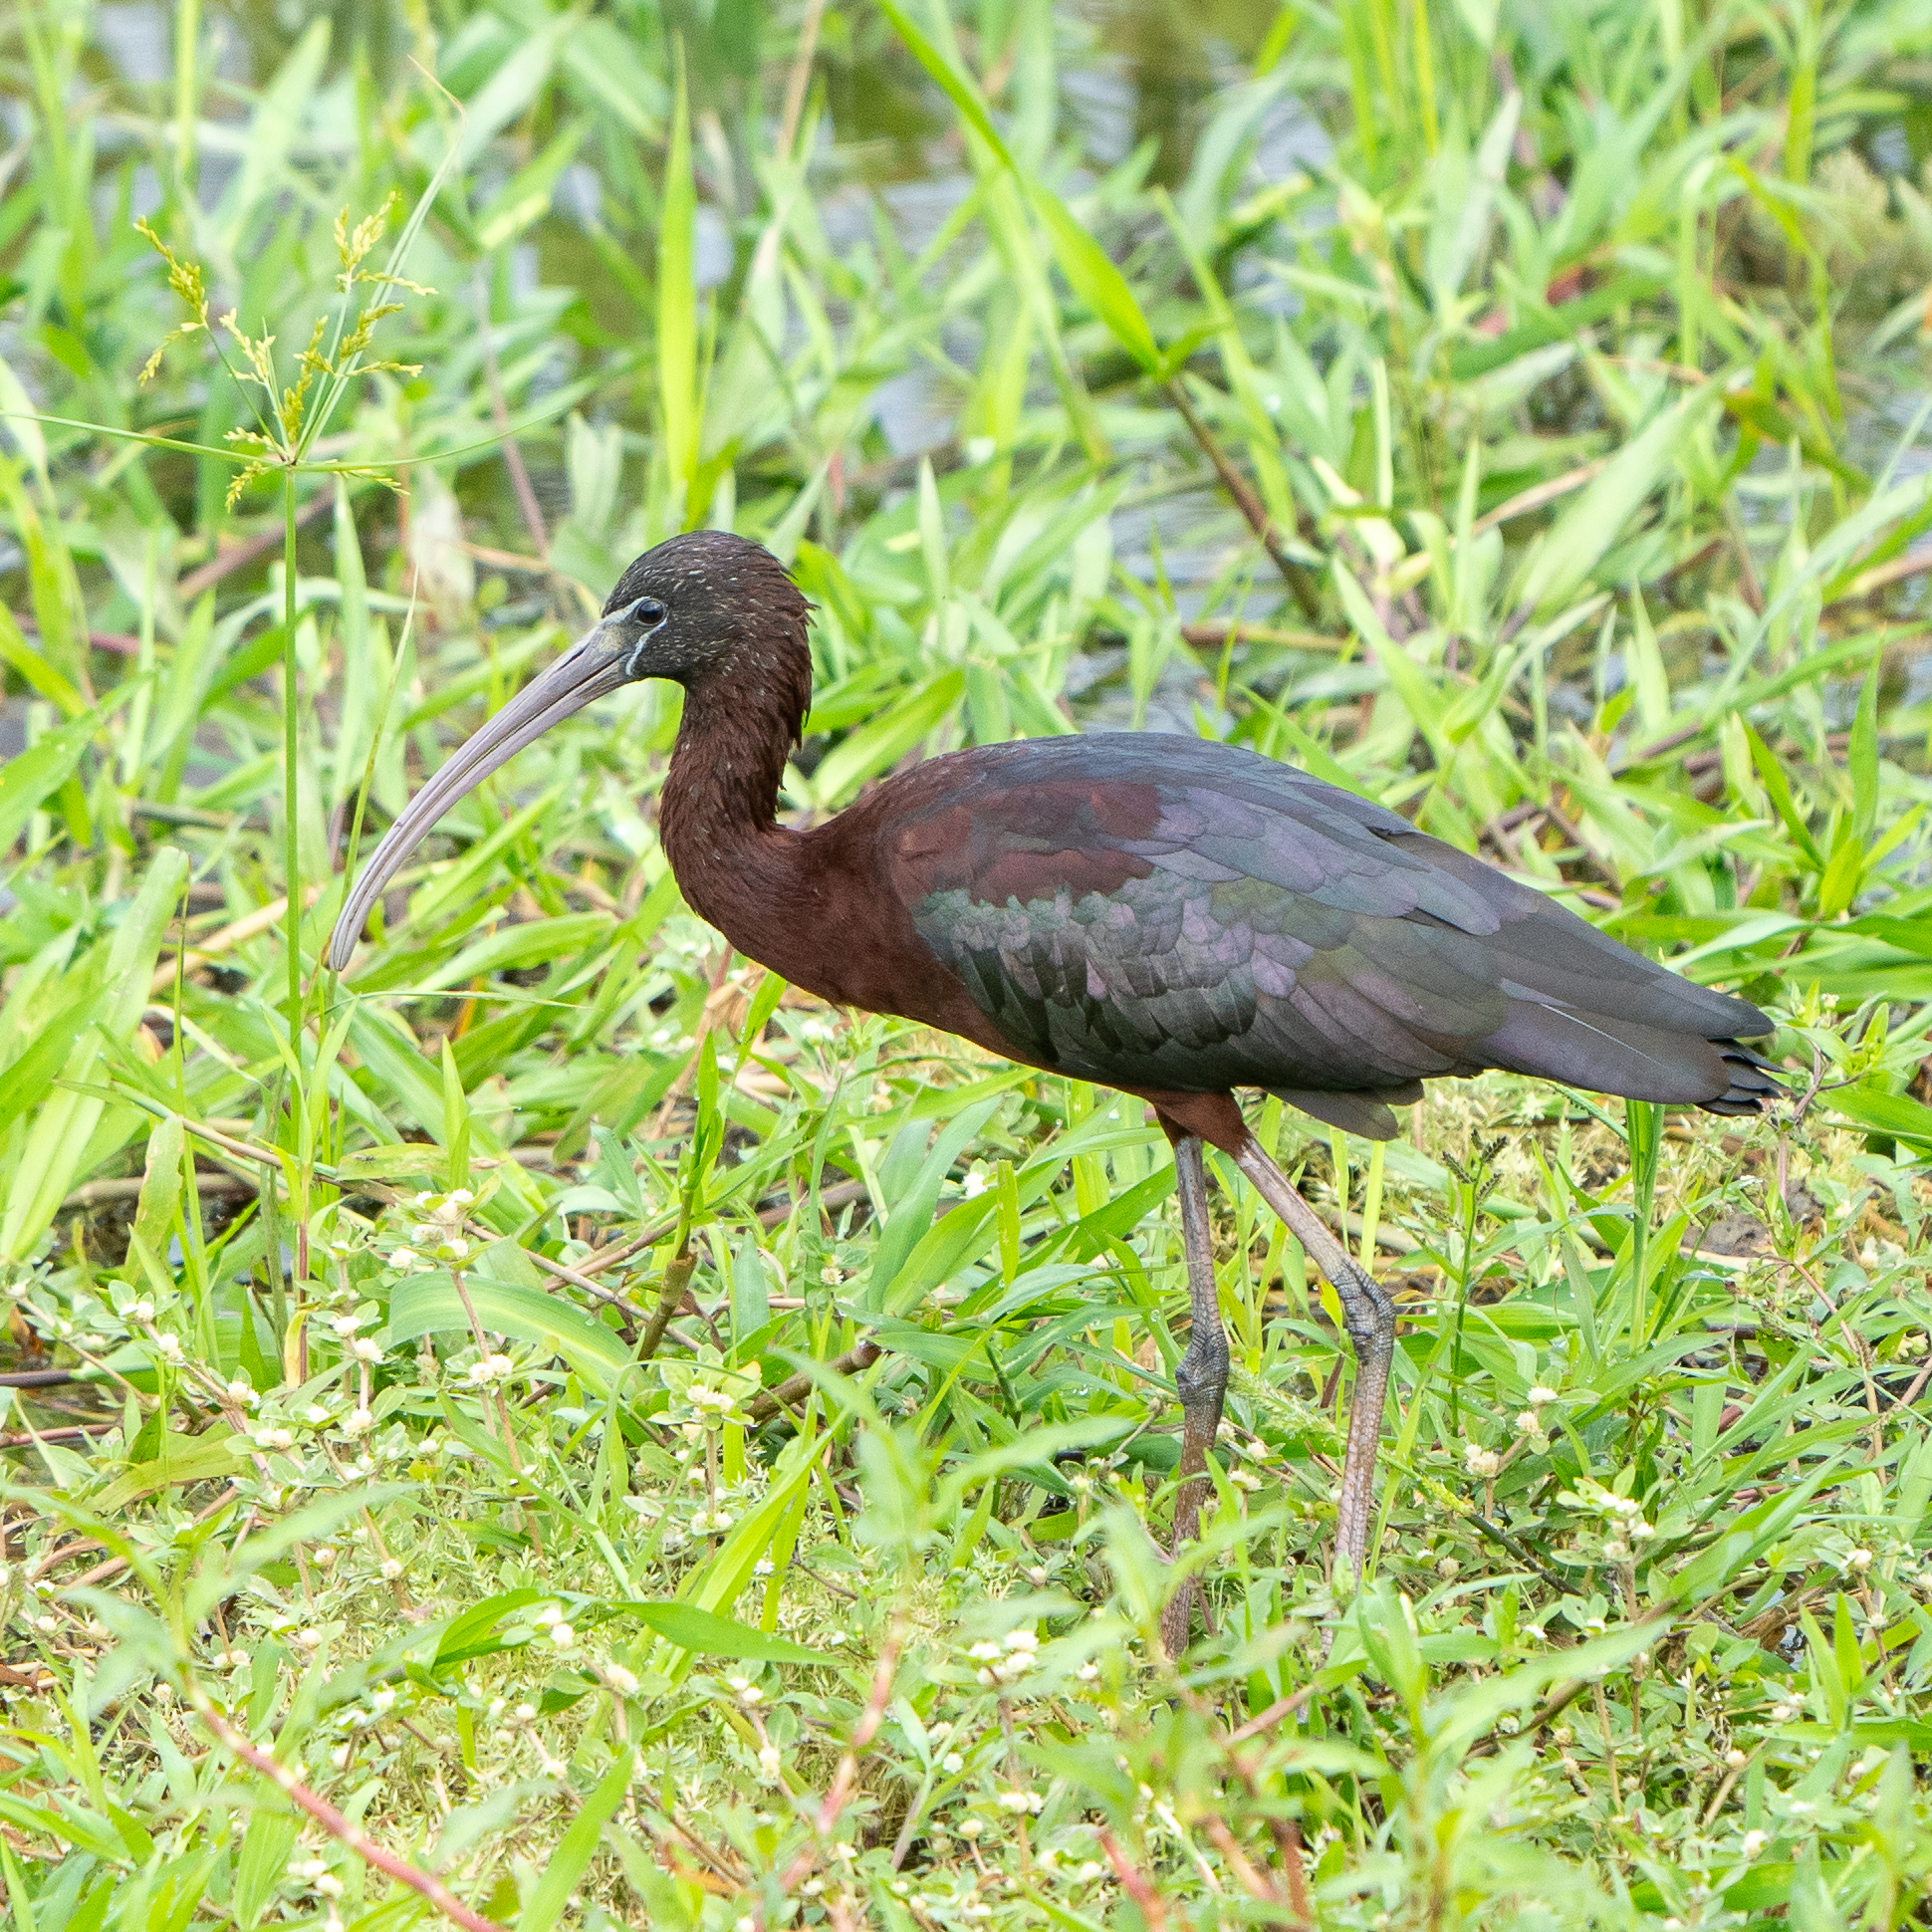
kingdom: Animalia
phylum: Chordata
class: Aves
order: Pelecaniformes
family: Threskiornithidae
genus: Plegadis
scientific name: Plegadis falcinellus
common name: Glossy ibis
